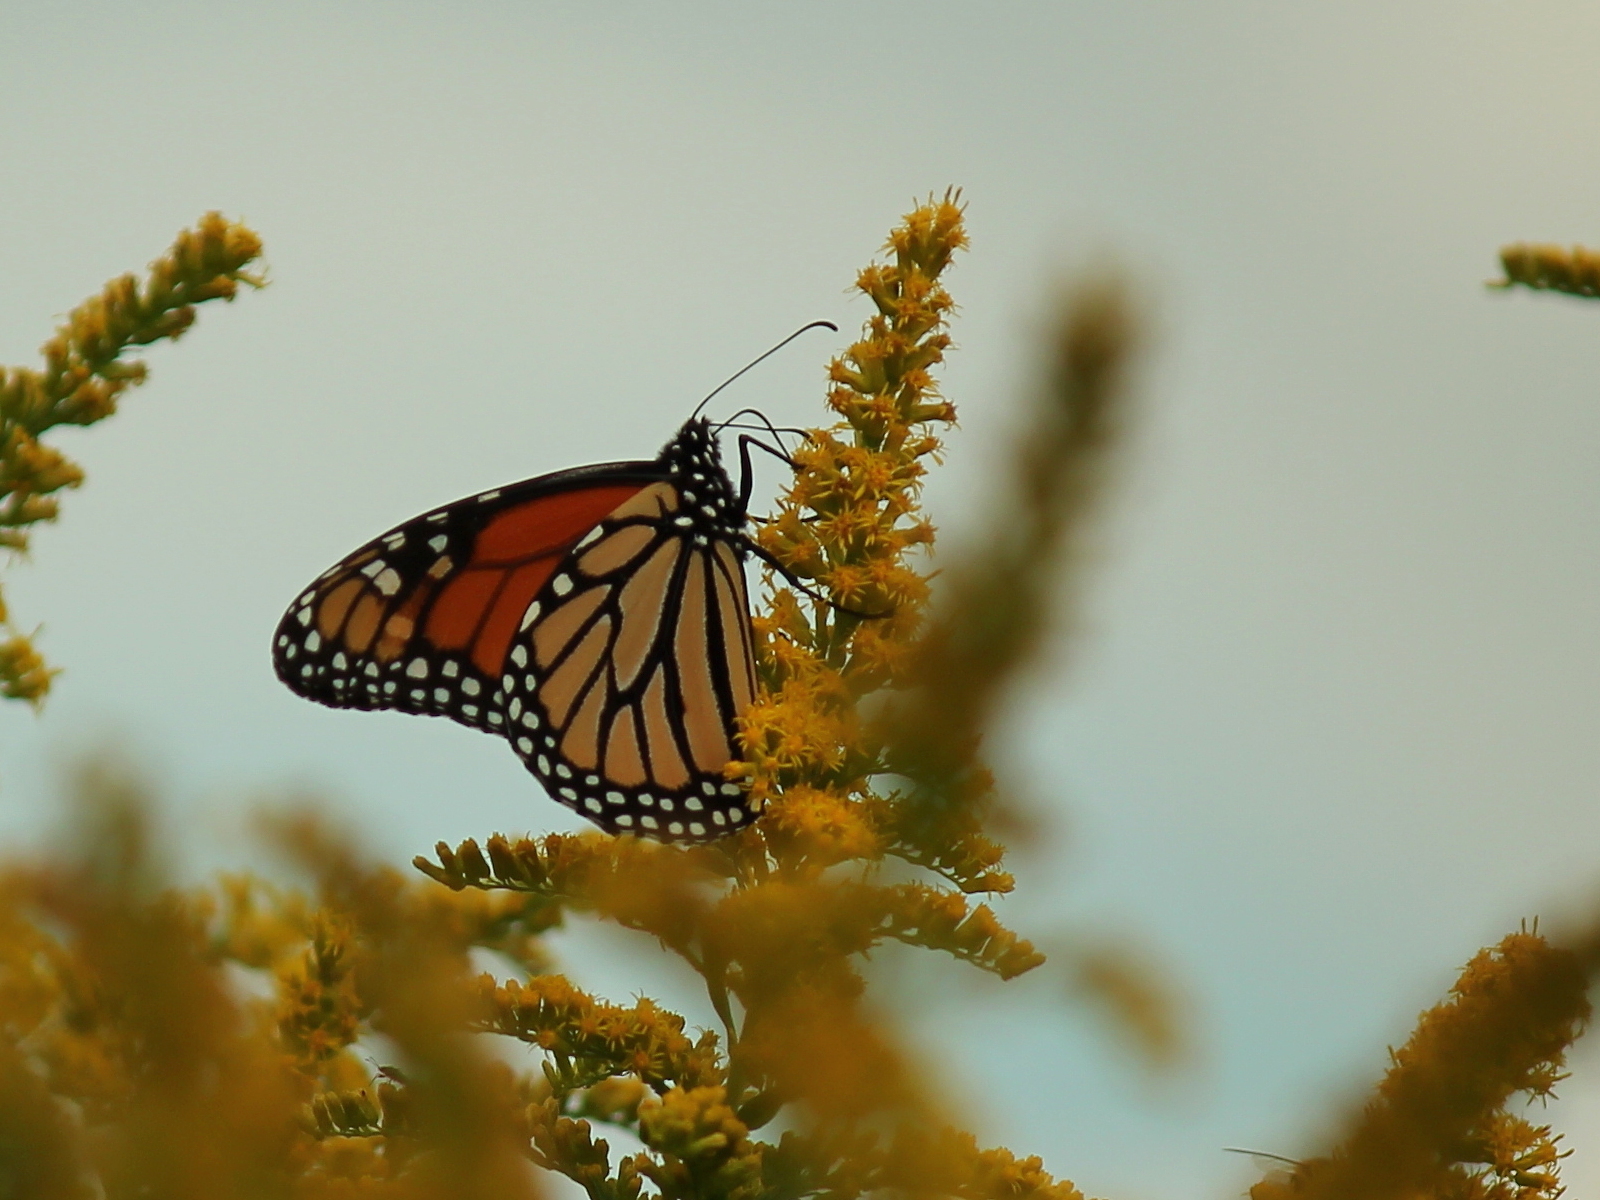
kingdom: Animalia
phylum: Arthropoda
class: Insecta
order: Lepidoptera
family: Nymphalidae
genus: Danaus
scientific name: Danaus plexippus
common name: Monarch
